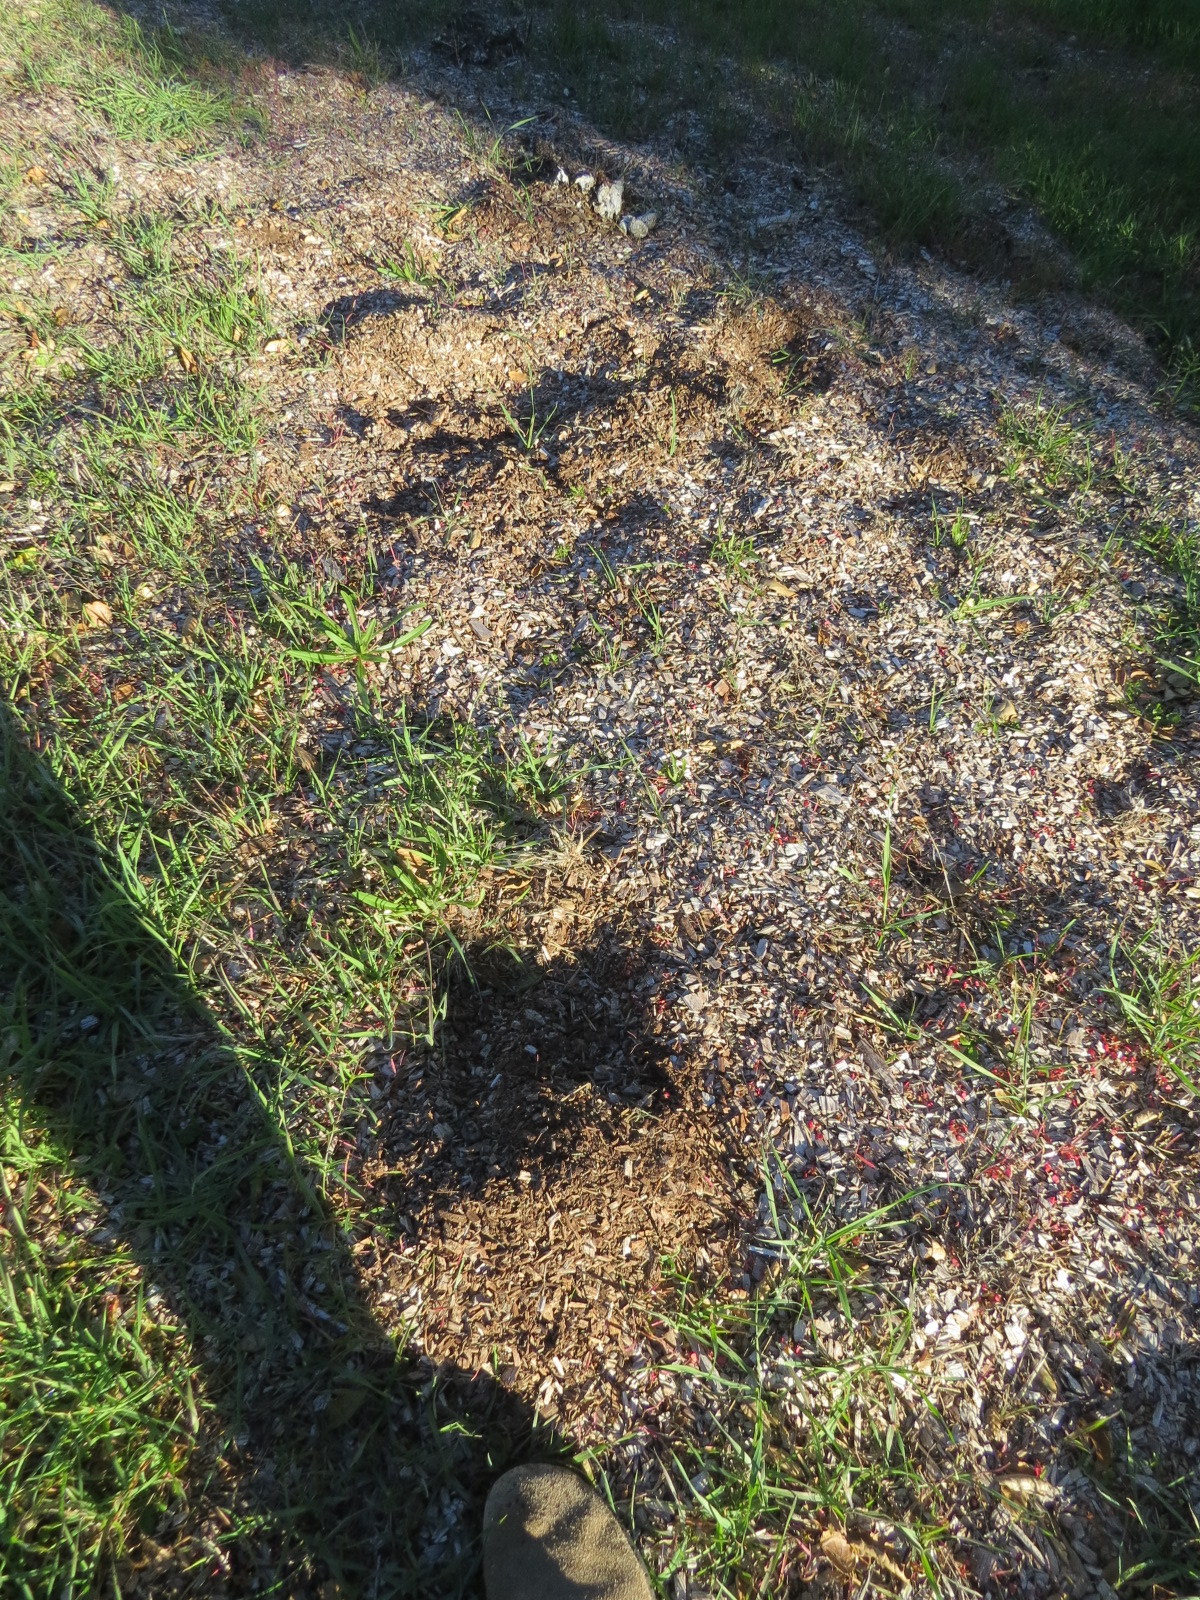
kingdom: Animalia
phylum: Chordata
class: Mammalia
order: Carnivora
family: Felidae
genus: Puma
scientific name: Puma concolor
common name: Puma
